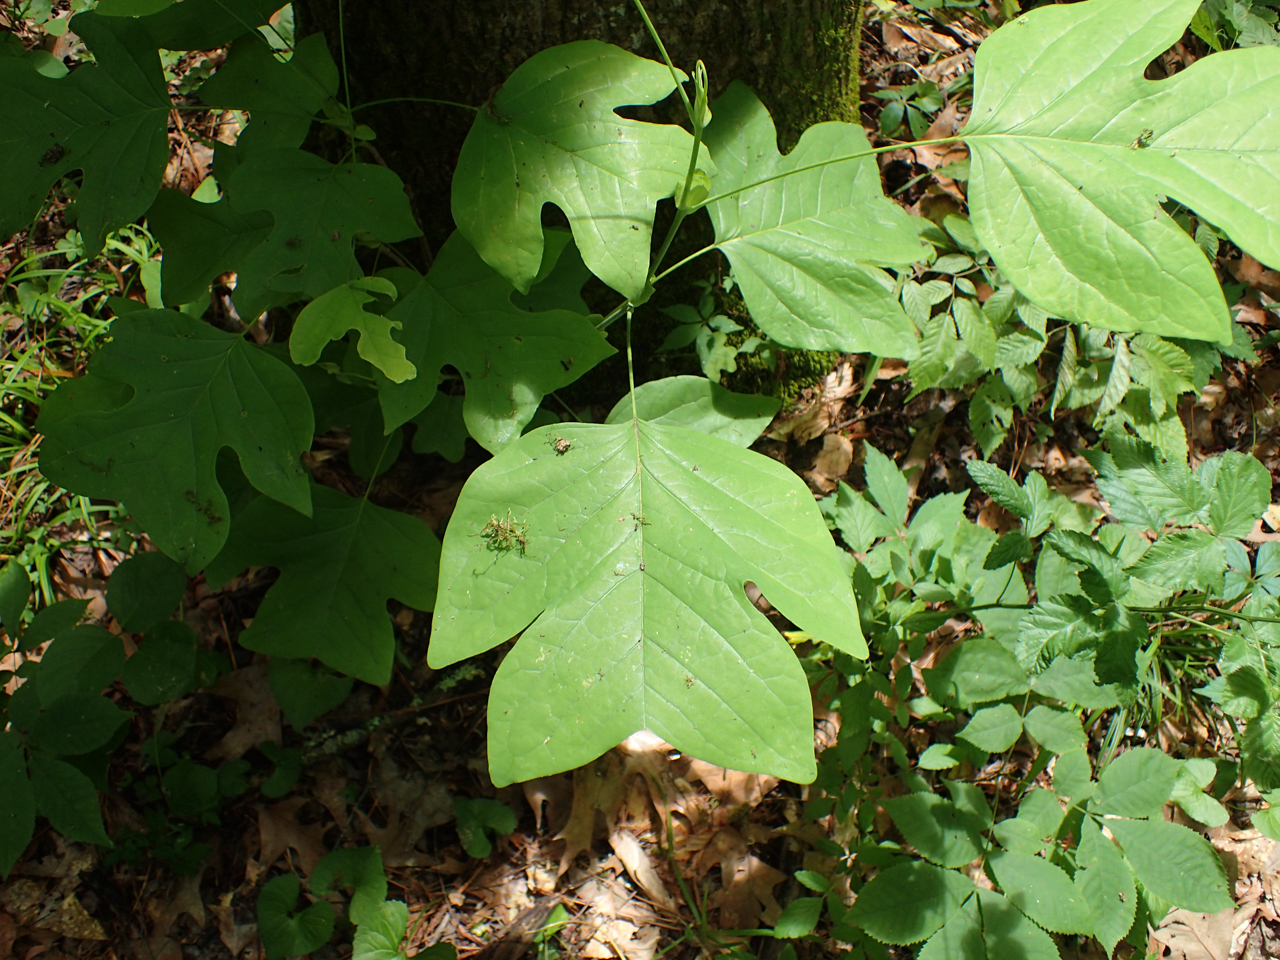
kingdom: Plantae
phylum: Tracheophyta
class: Magnoliopsida
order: Magnoliales
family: Magnoliaceae
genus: Liriodendron
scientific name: Liriodendron tulipifera
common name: Tulip tree
